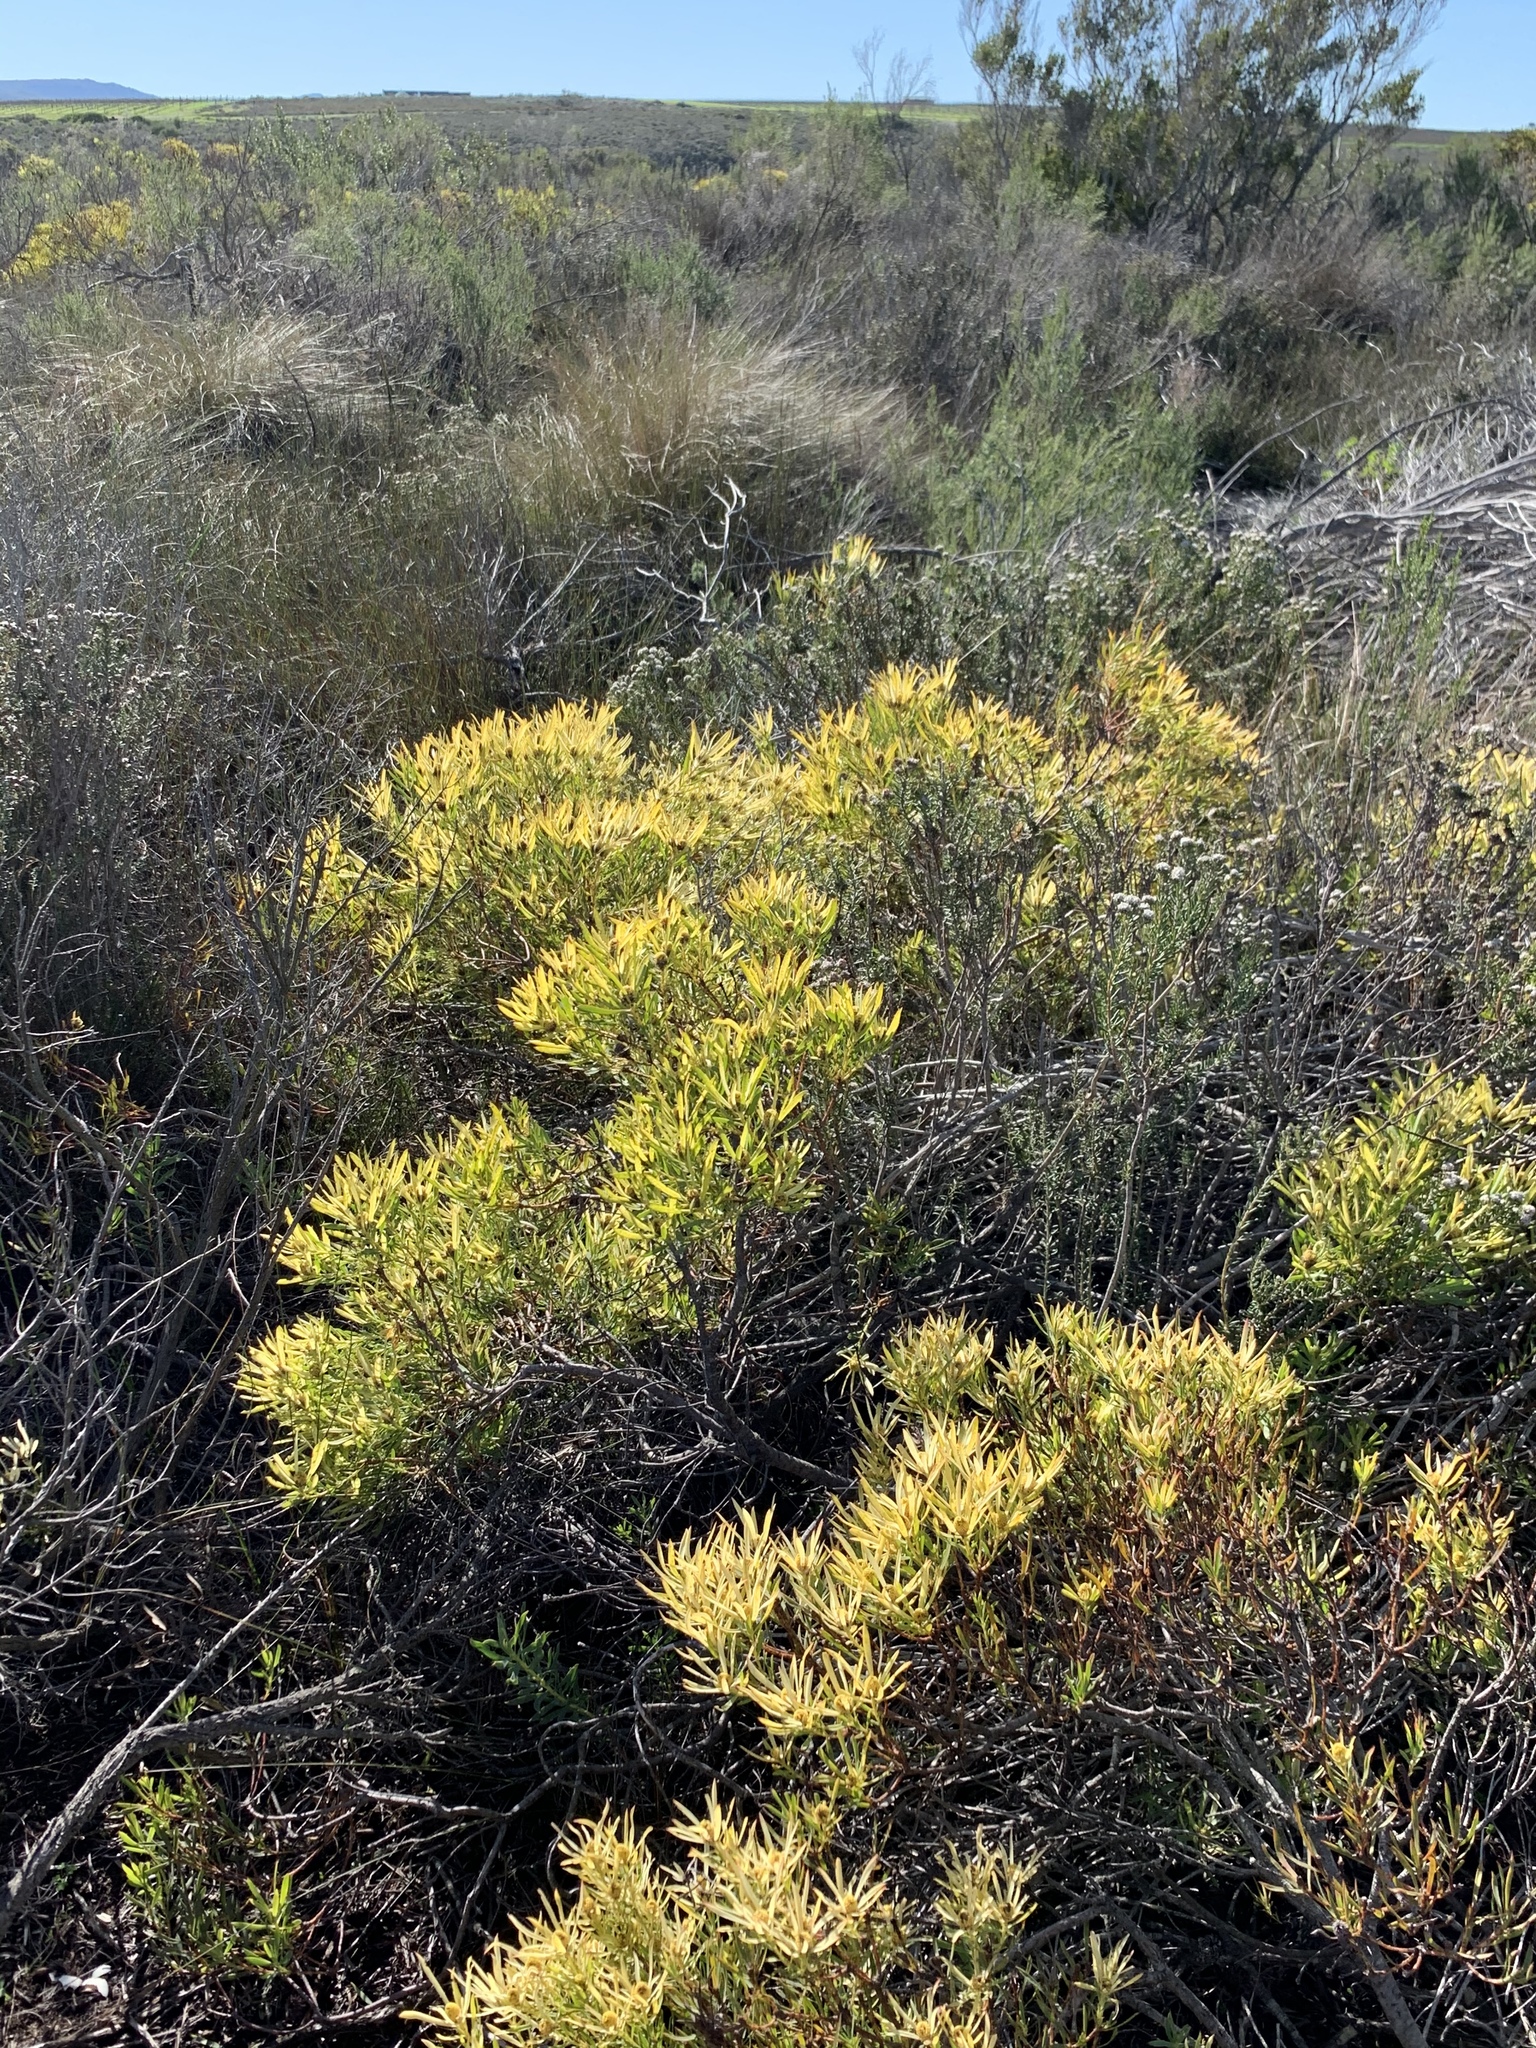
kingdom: Plantae
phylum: Tracheophyta
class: Magnoliopsida
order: Proteales
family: Proteaceae
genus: Leucadendron
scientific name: Leucadendron salignum
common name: Common sunshine conebush
